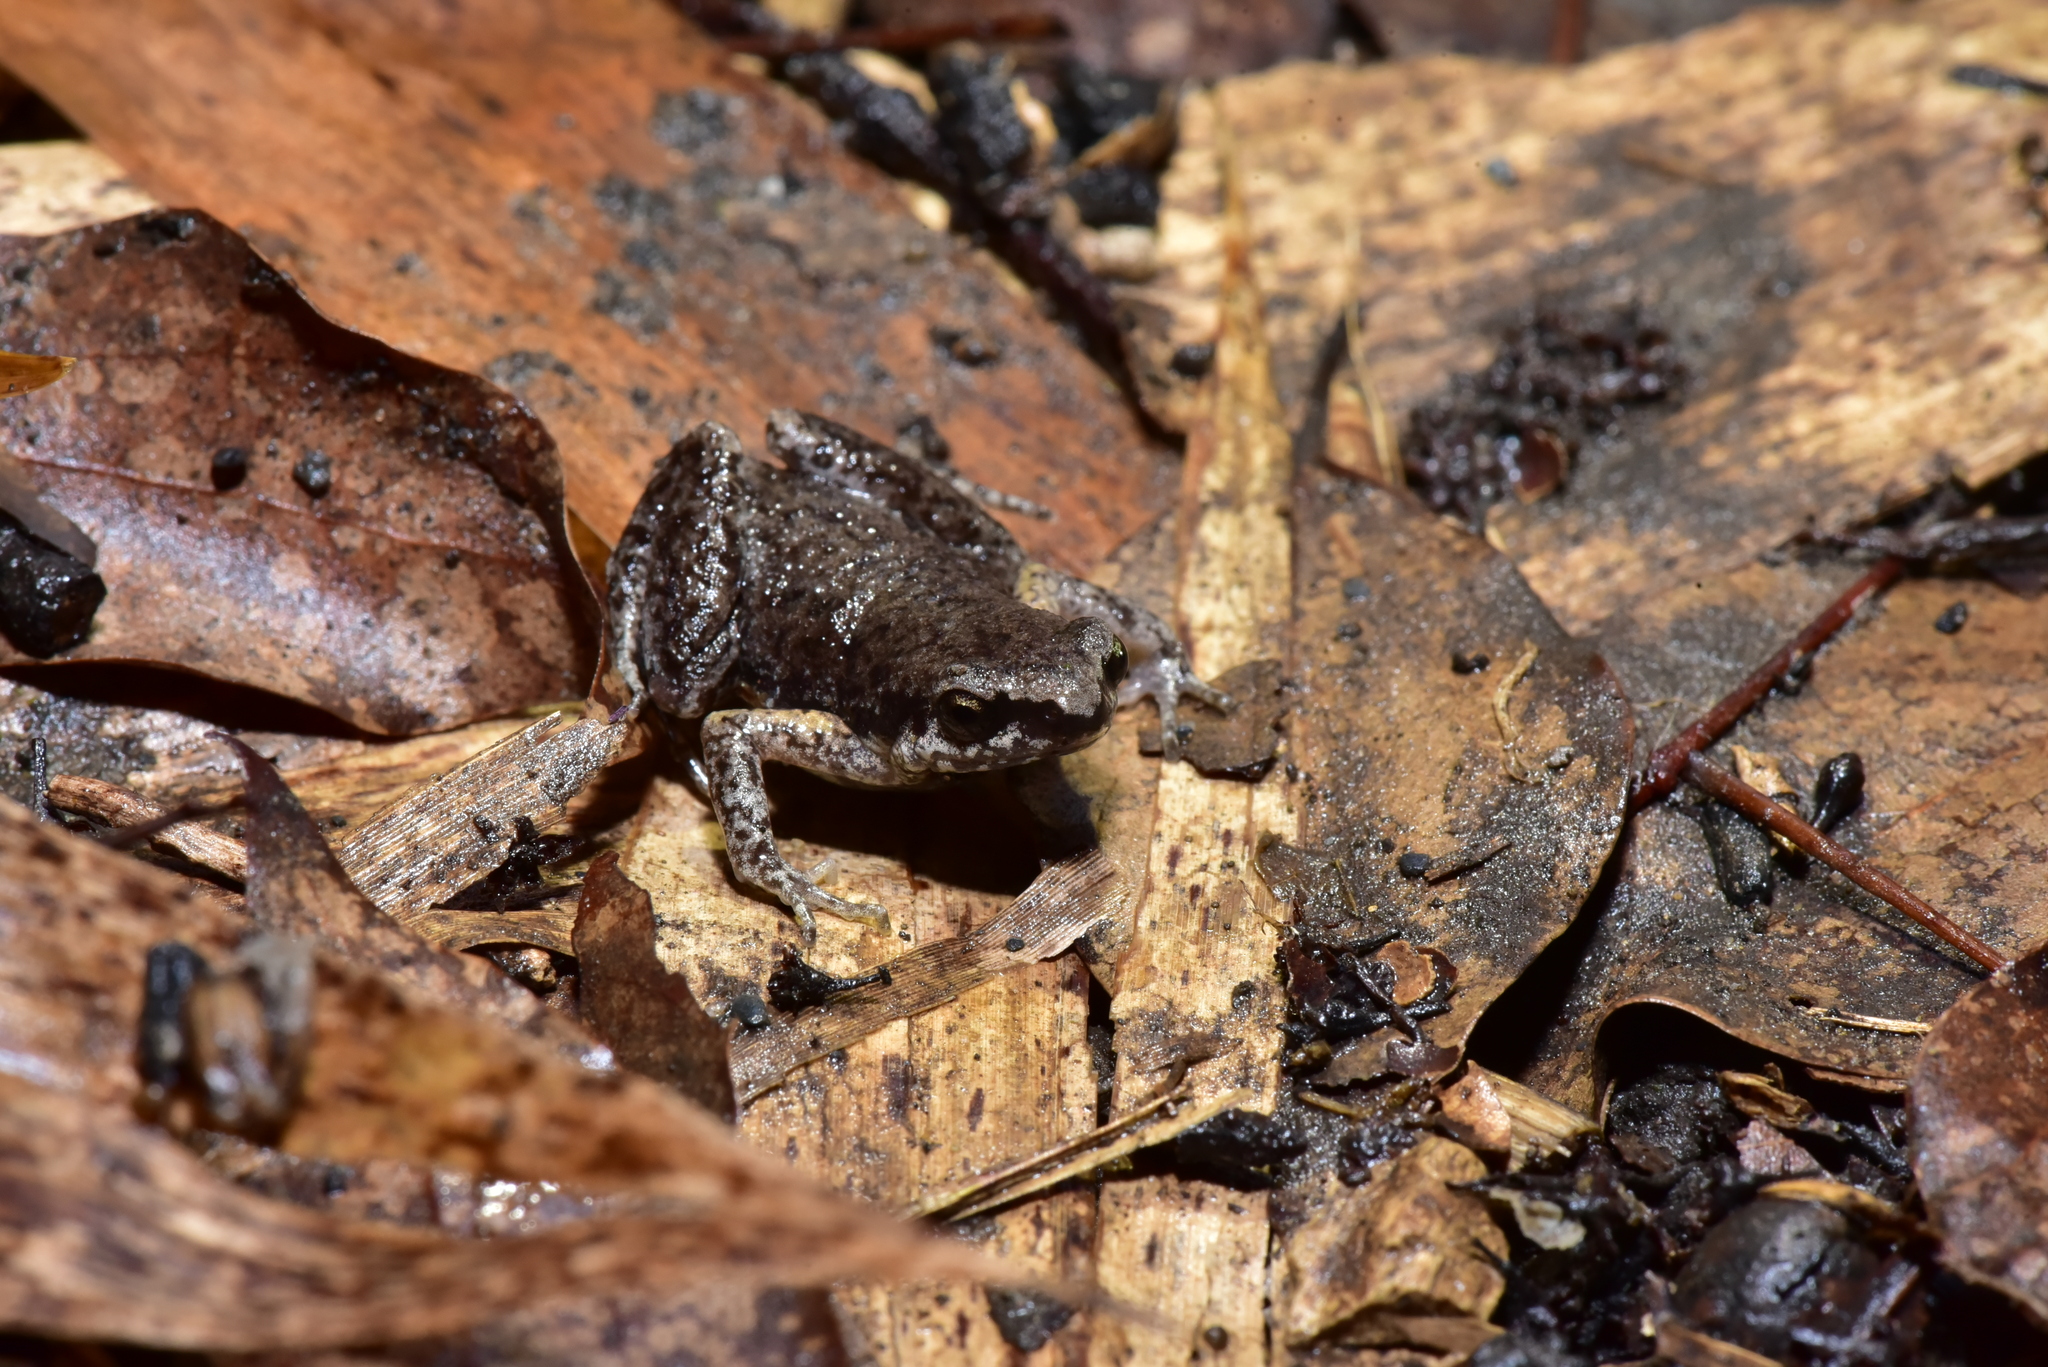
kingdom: Animalia
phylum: Chordata
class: Amphibia
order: Anura
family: Microhylidae
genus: Micryletta
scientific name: Micryletta steinegeri
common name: Stejneger's paddy frog
